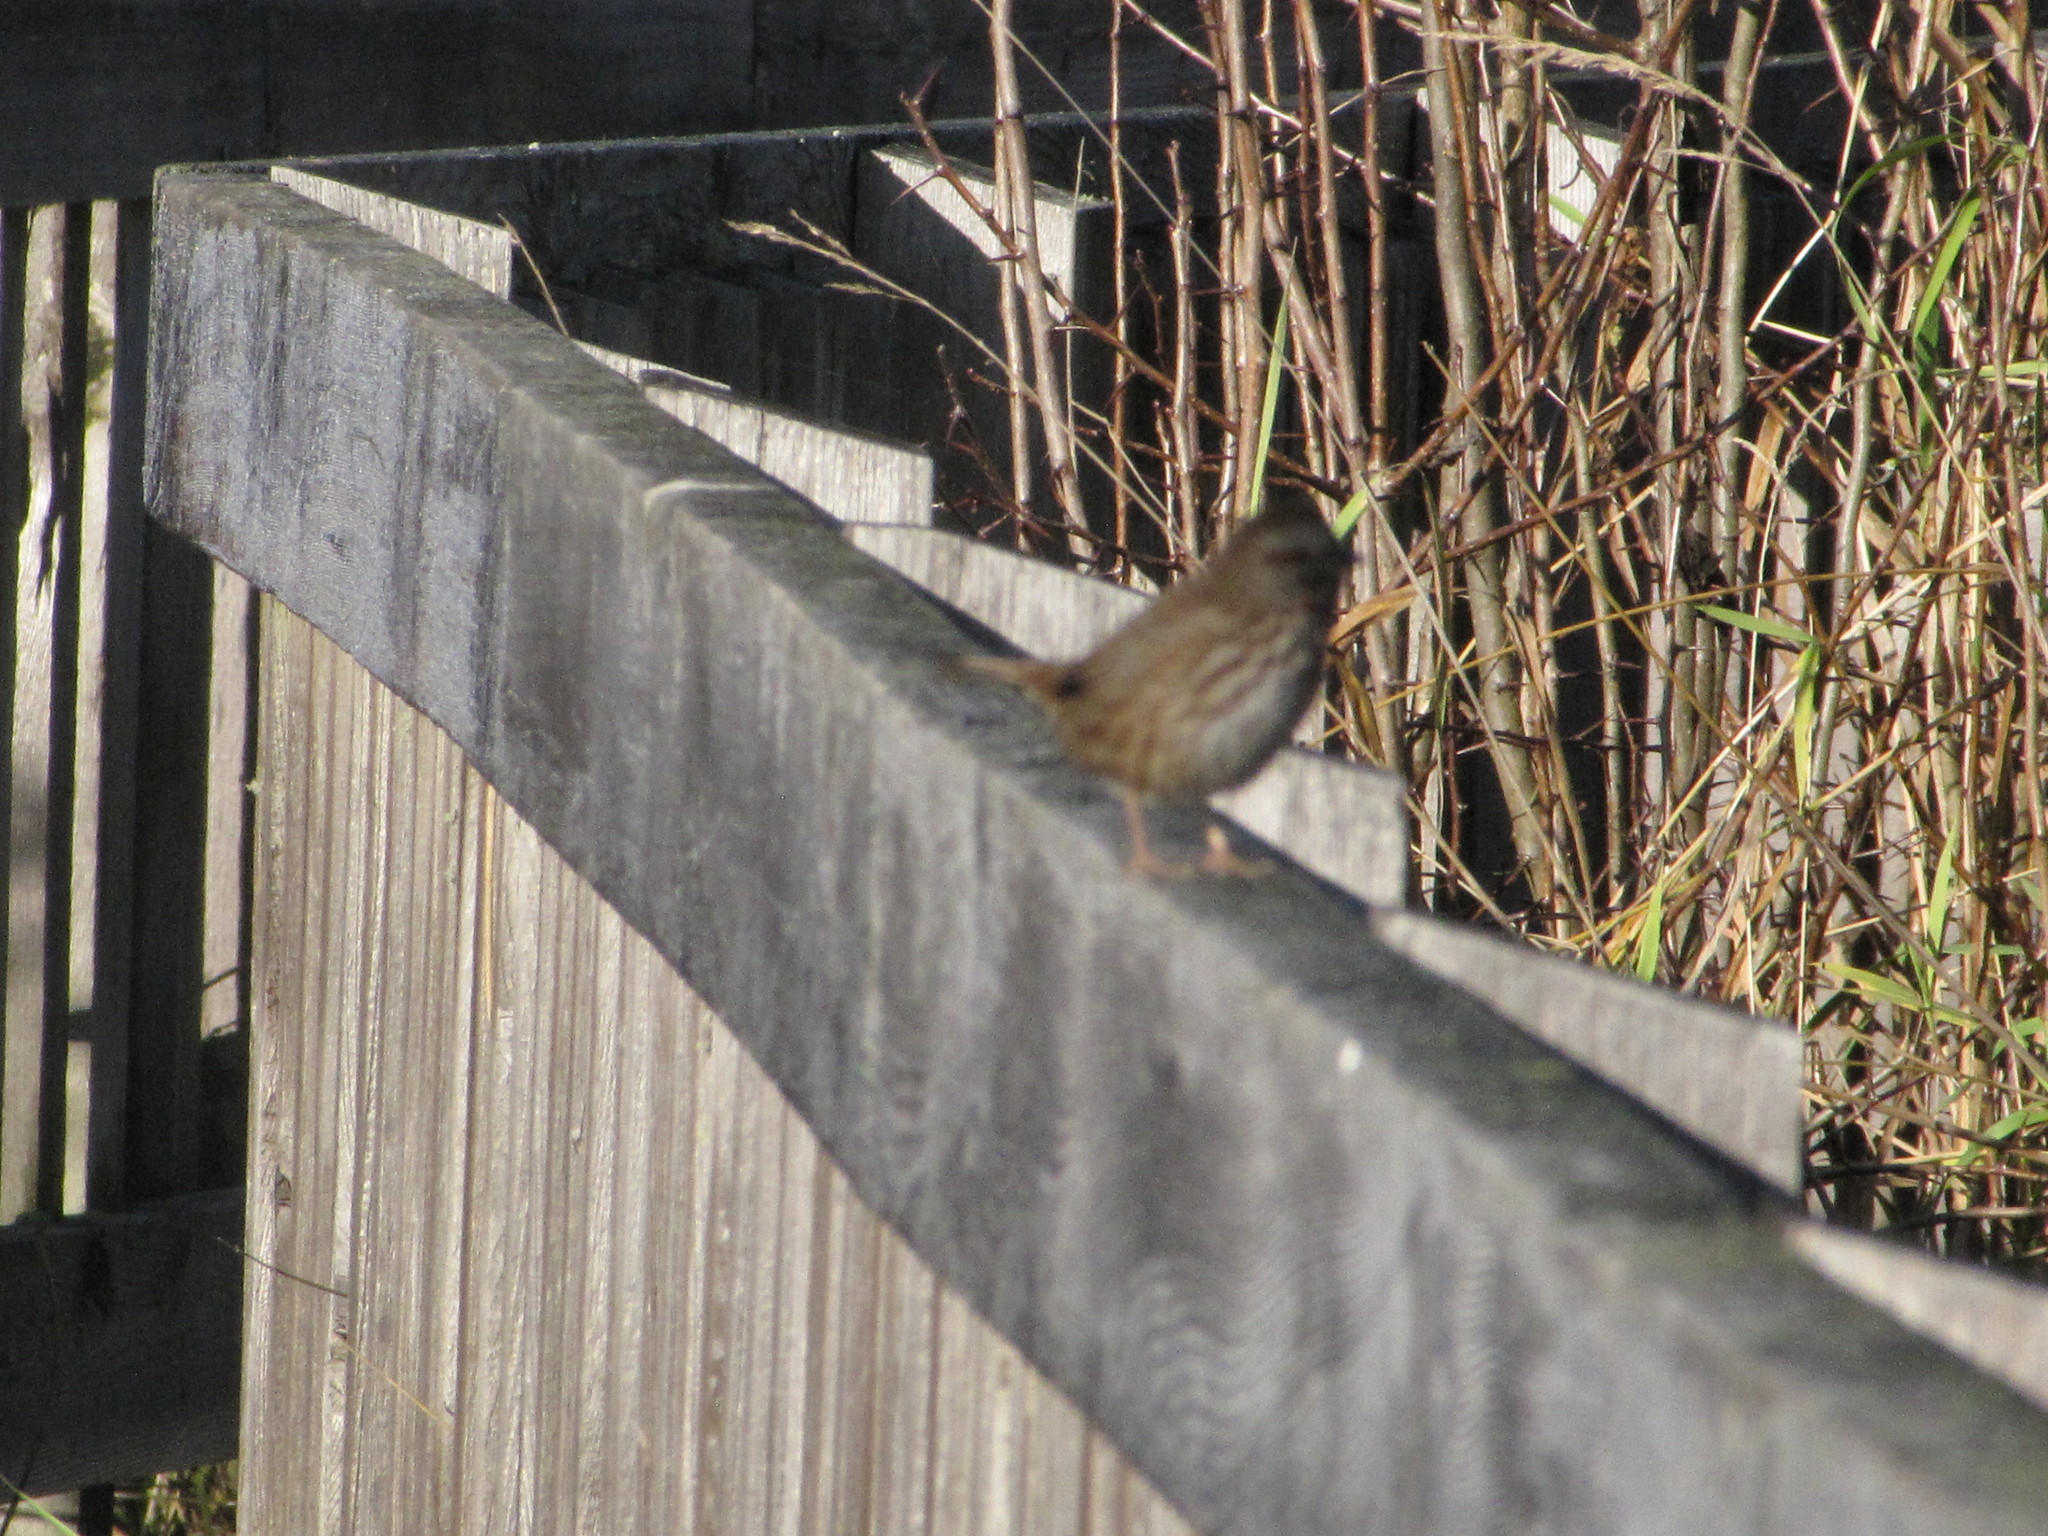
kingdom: Animalia
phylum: Chordata
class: Aves
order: Passeriformes
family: Passerellidae
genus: Melospiza
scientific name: Melospiza melodia
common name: Song sparrow
